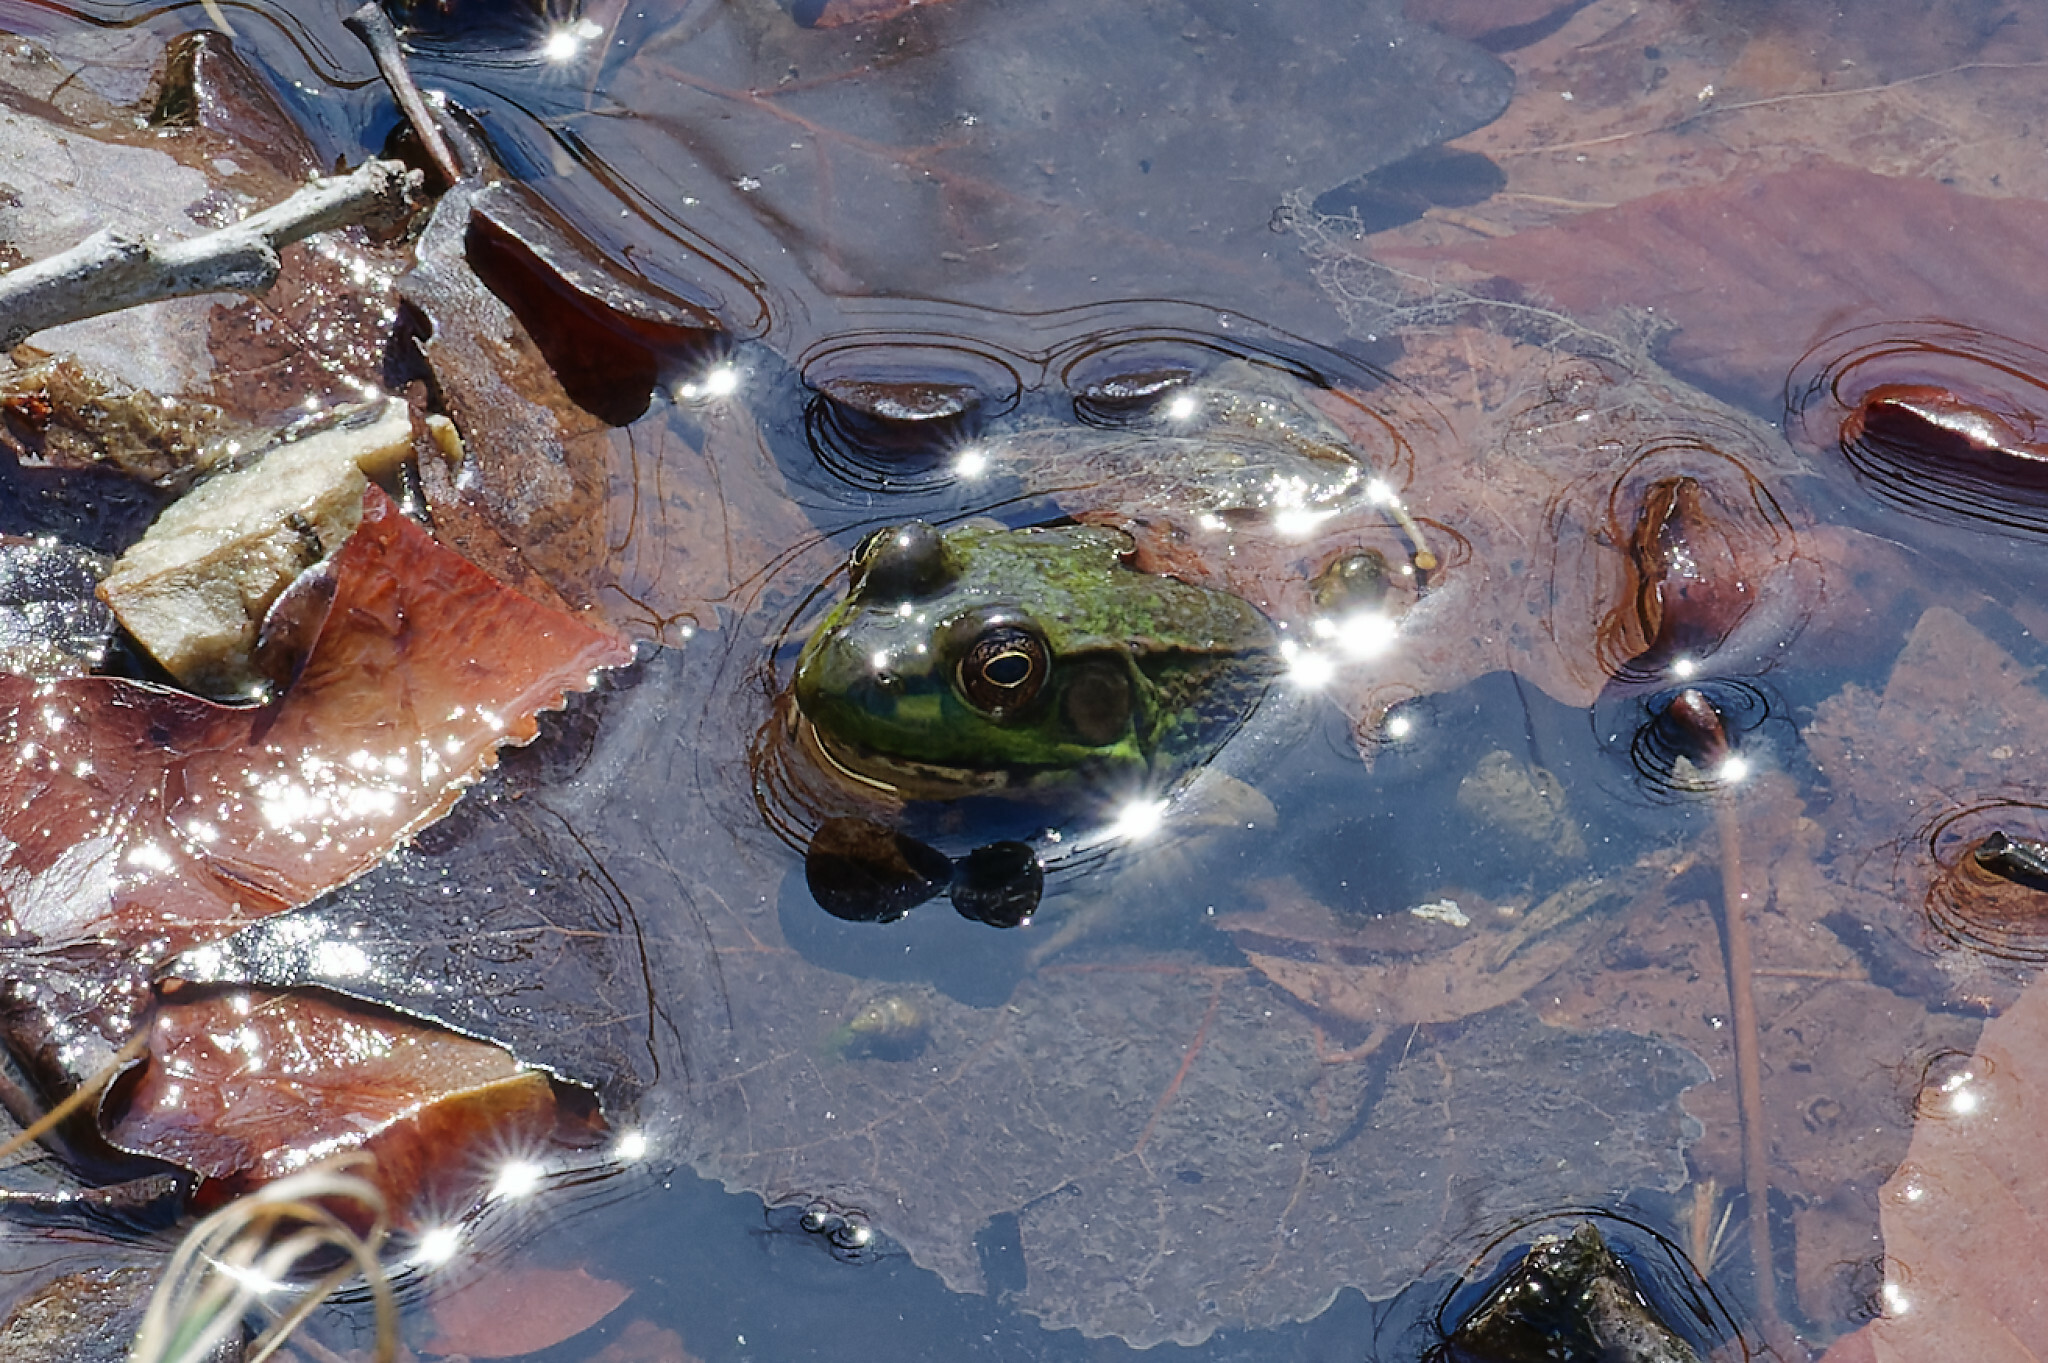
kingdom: Animalia
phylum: Chordata
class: Amphibia
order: Anura
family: Ranidae
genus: Lithobates
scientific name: Lithobates clamitans
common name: Green frog
